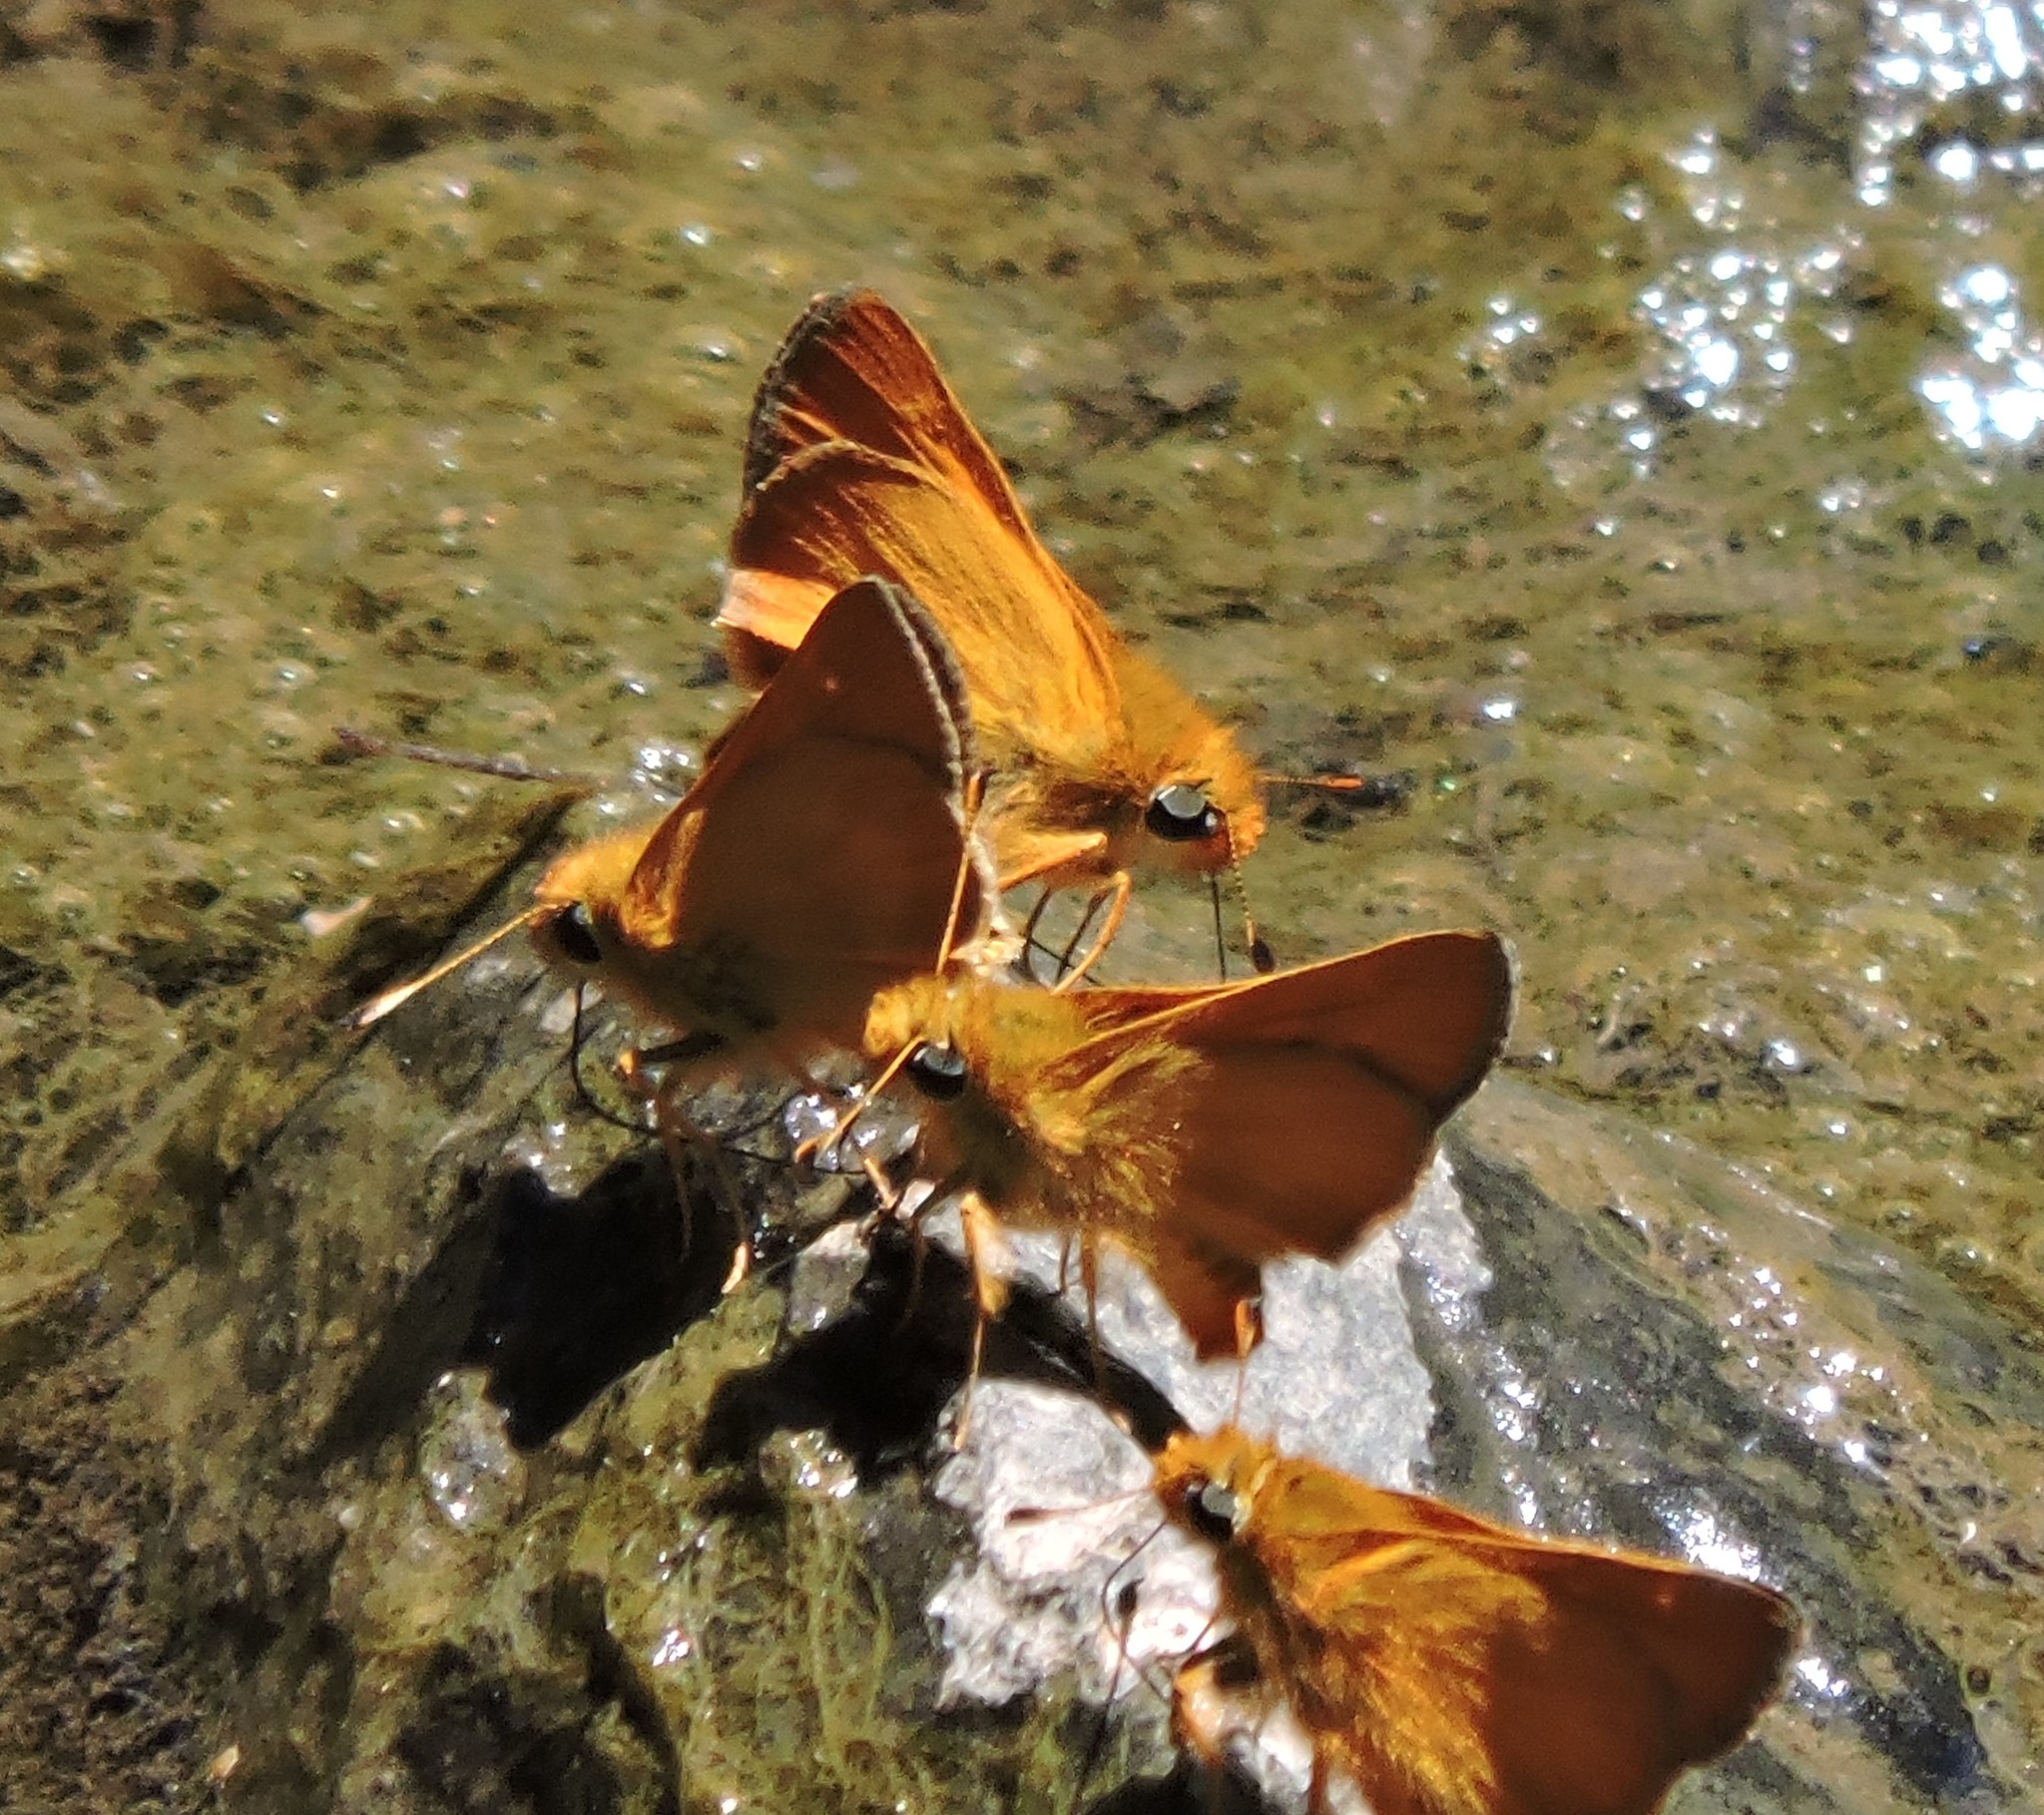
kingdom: Animalia
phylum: Arthropoda
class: Insecta
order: Lepidoptera
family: Hesperiidae
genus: Ochlodes
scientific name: Ochlodes agricola
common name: Rural skipper
